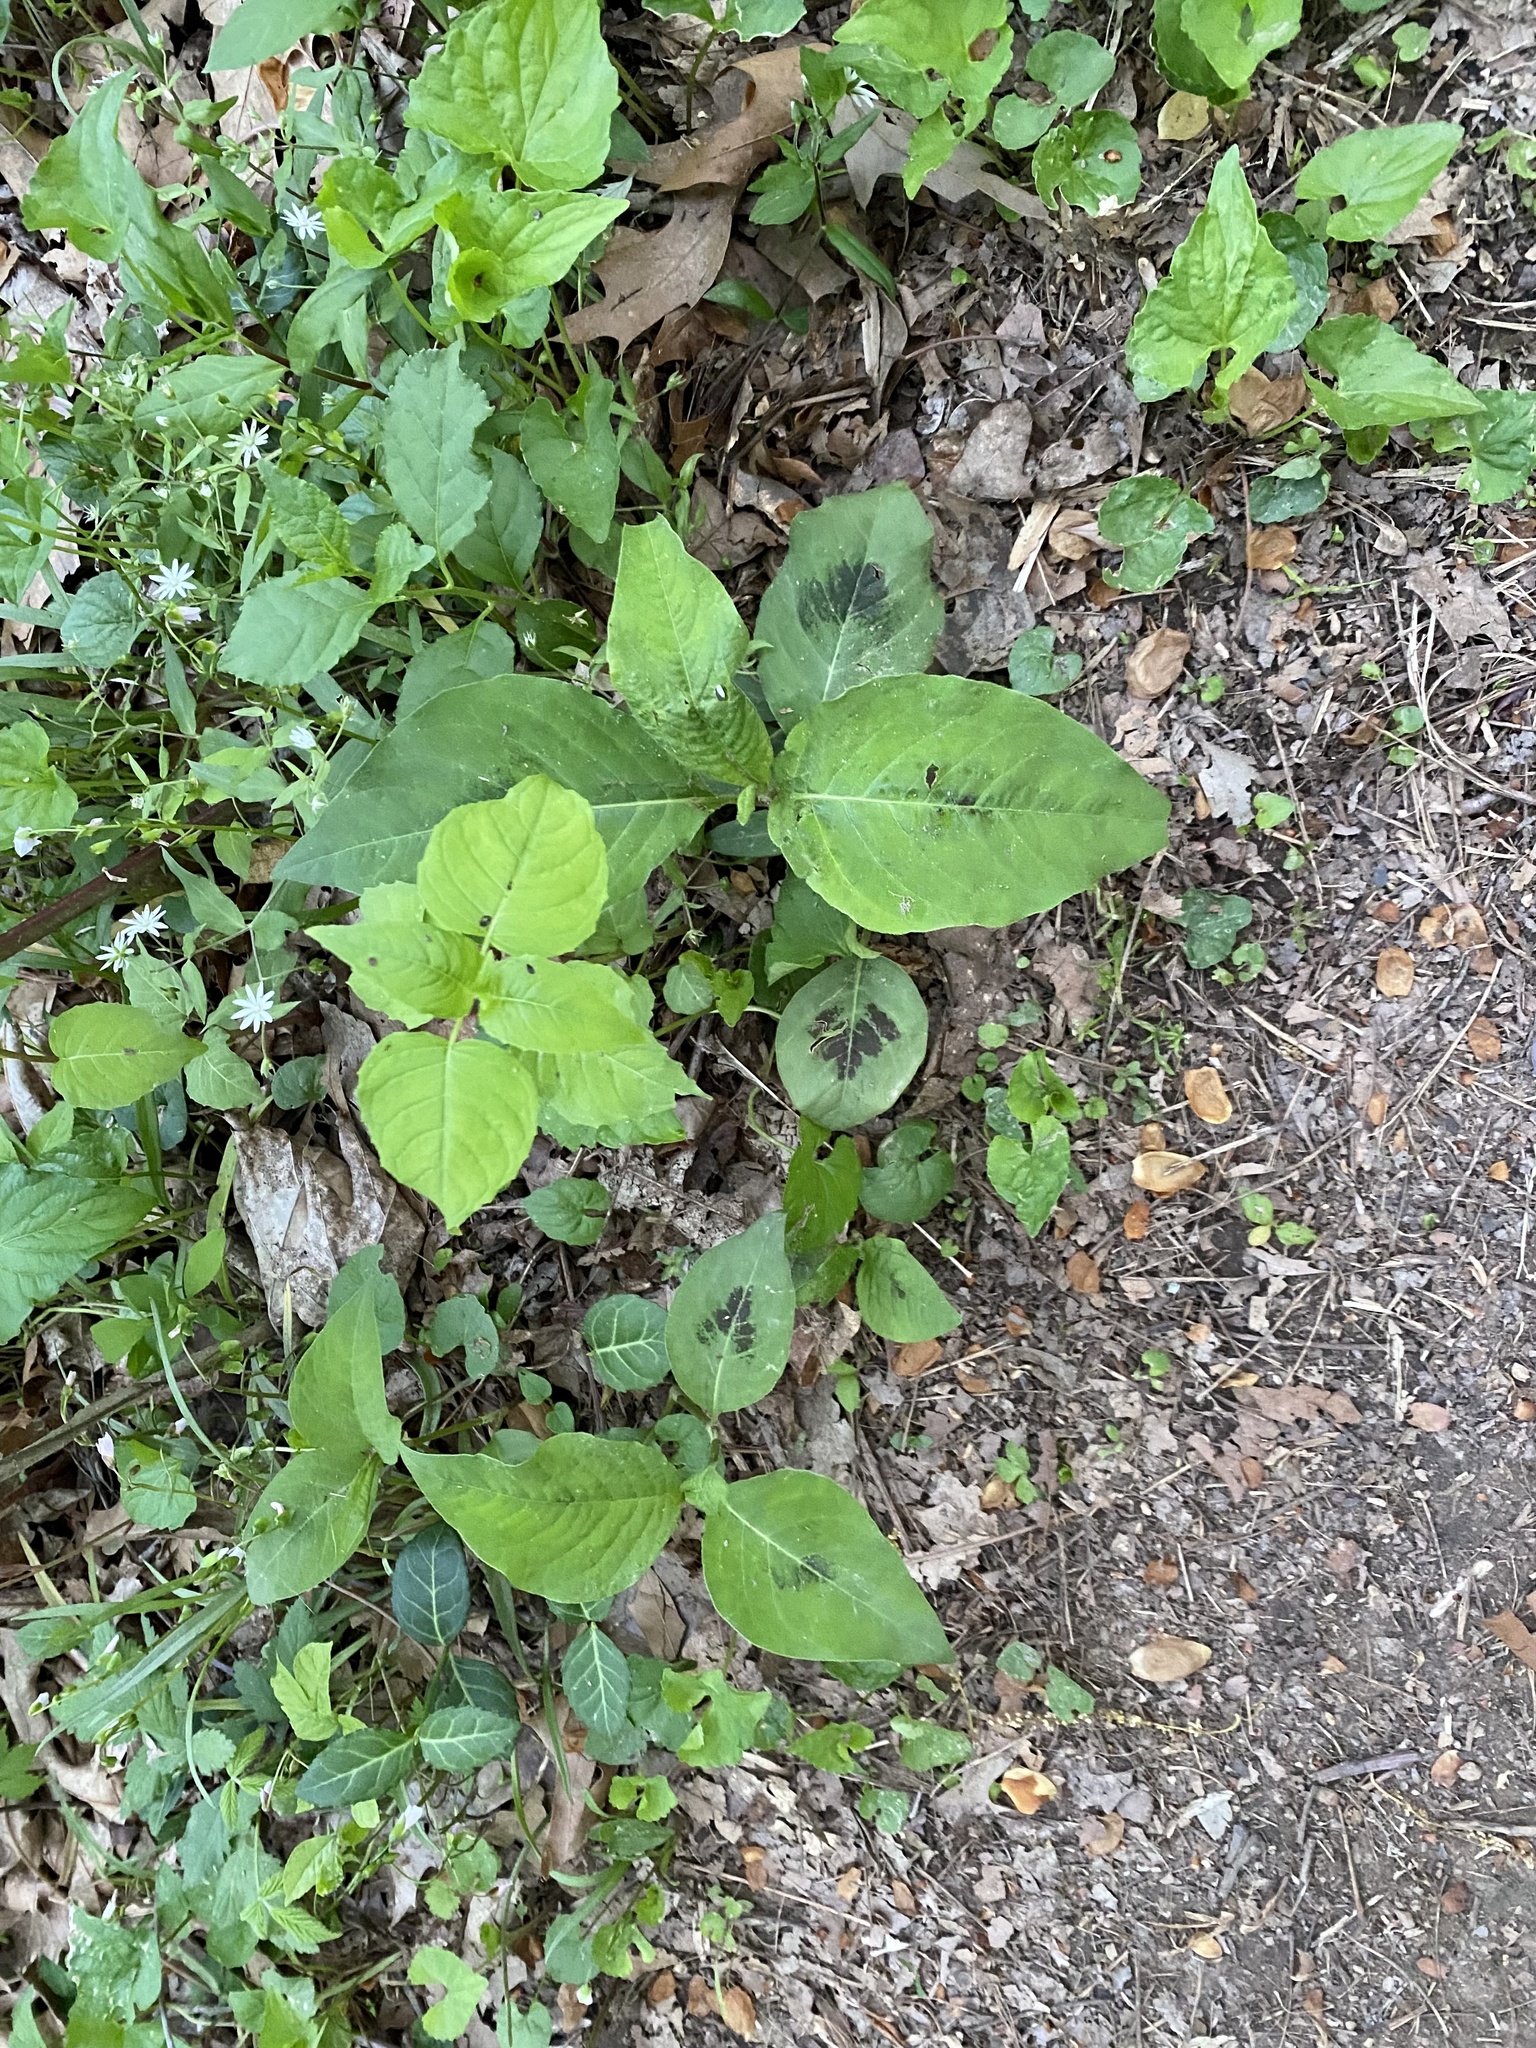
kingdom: Plantae
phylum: Tracheophyta
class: Magnoliopsida
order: Caryophyllales
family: Polygonaceae
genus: Persicaria
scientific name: Persicaria virginiana
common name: Jumpseed
